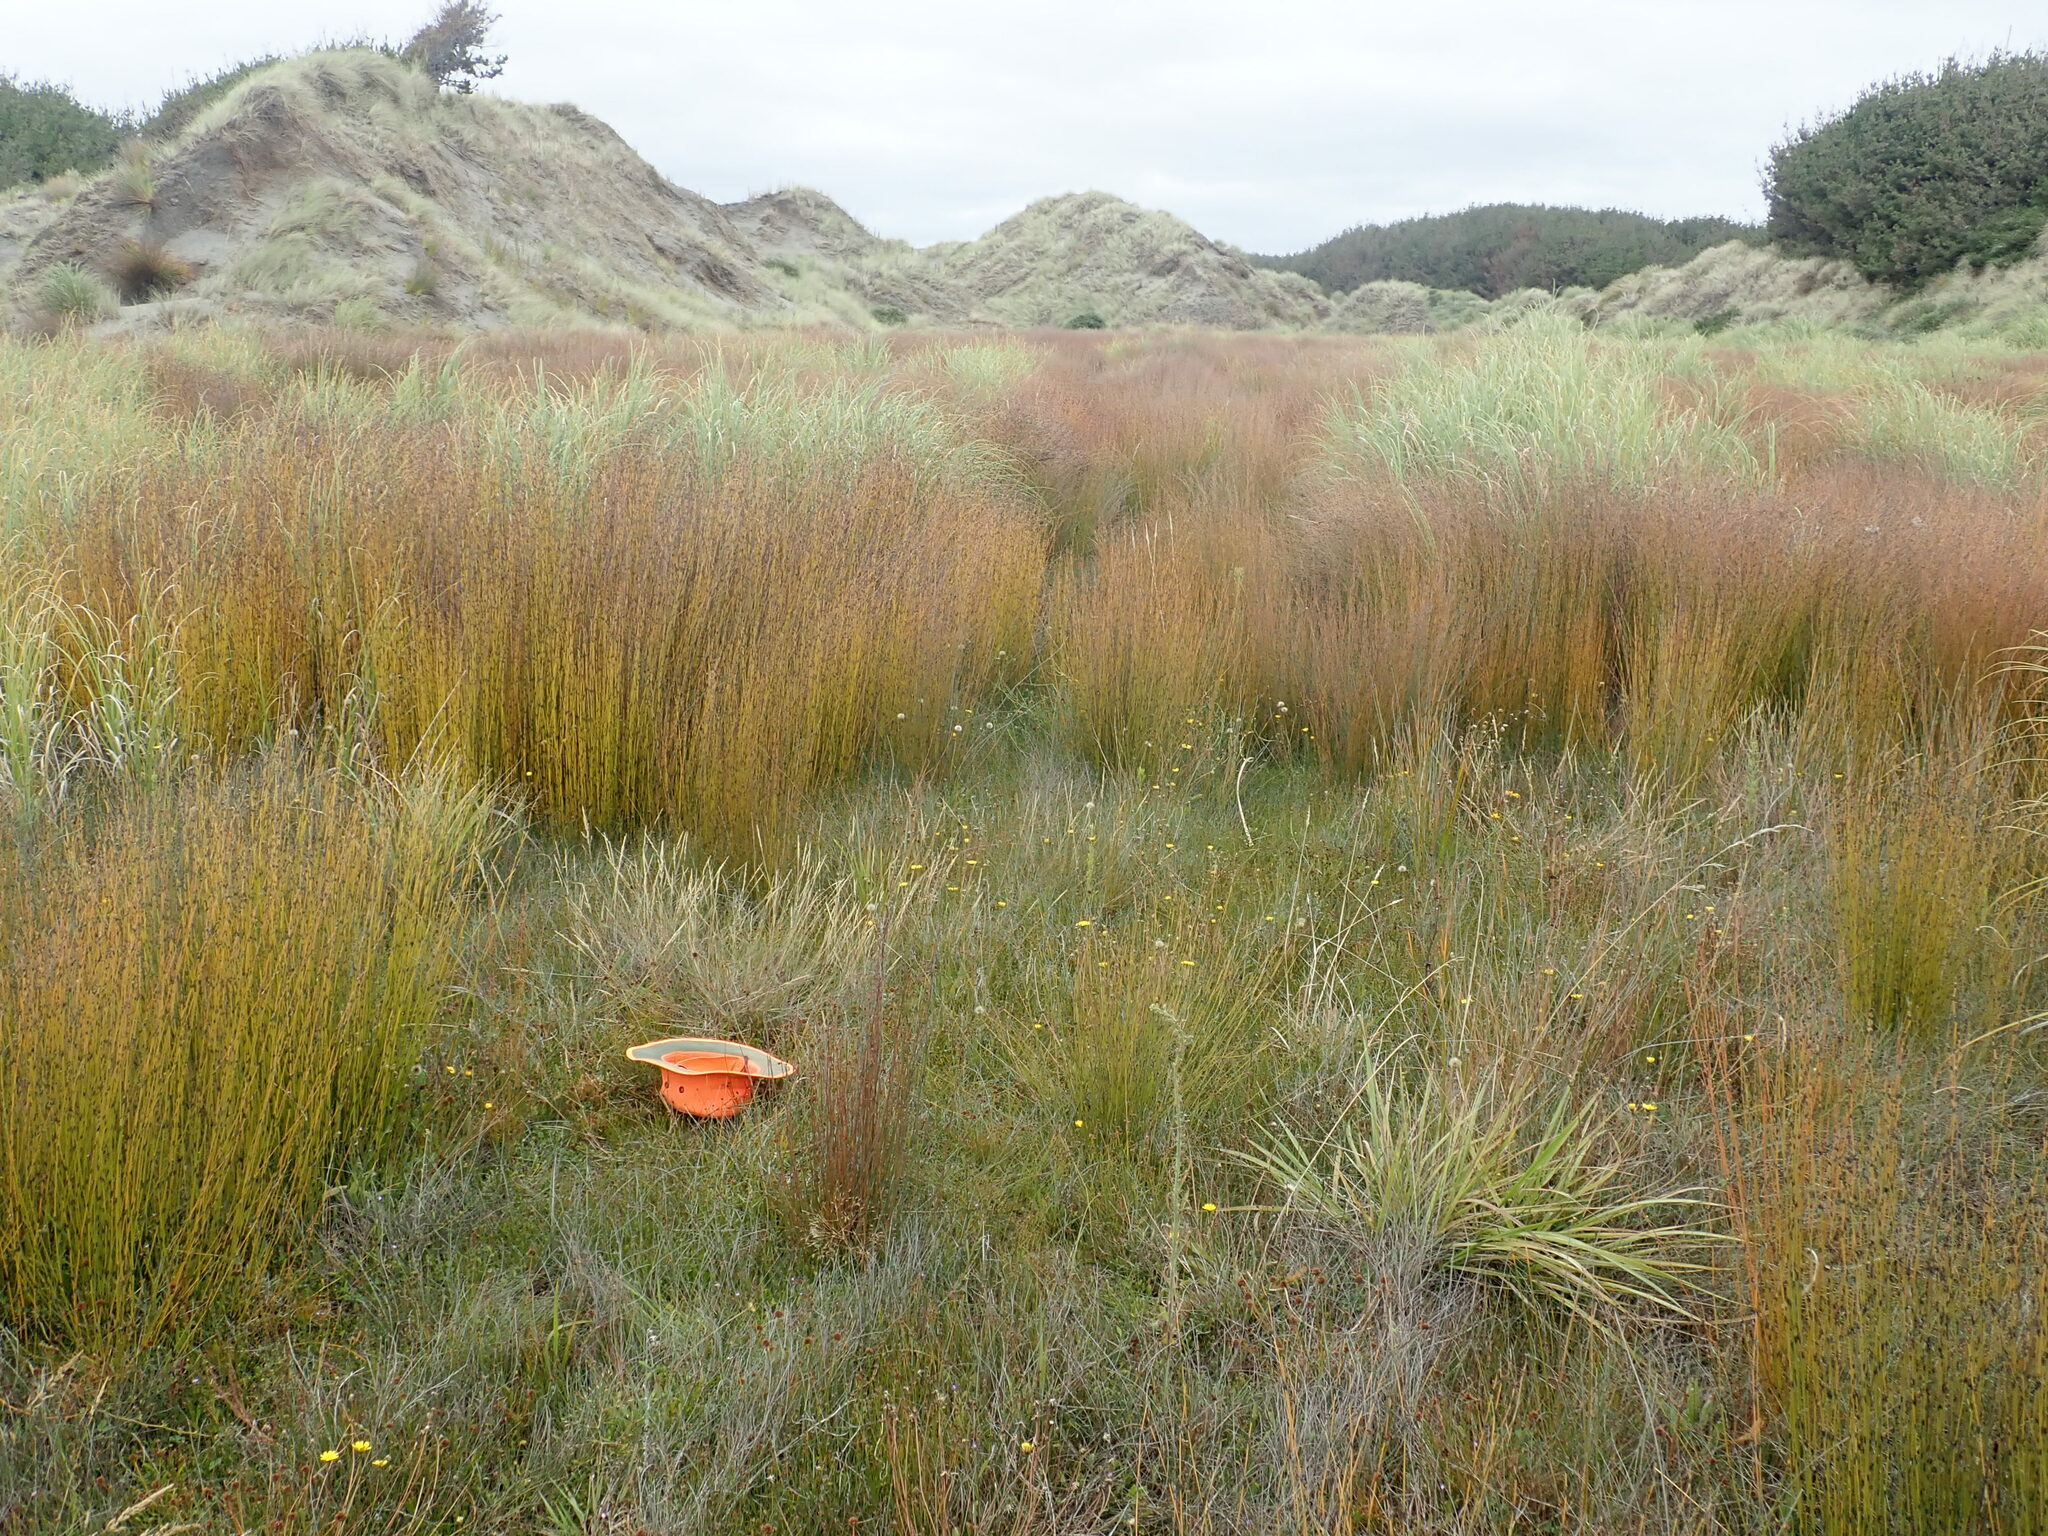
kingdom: Plantae
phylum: Tracheophyta
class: Magnoliopsida
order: Asterales
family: Goodeniaceae
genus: Goodenia
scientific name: Goodenia radicans
